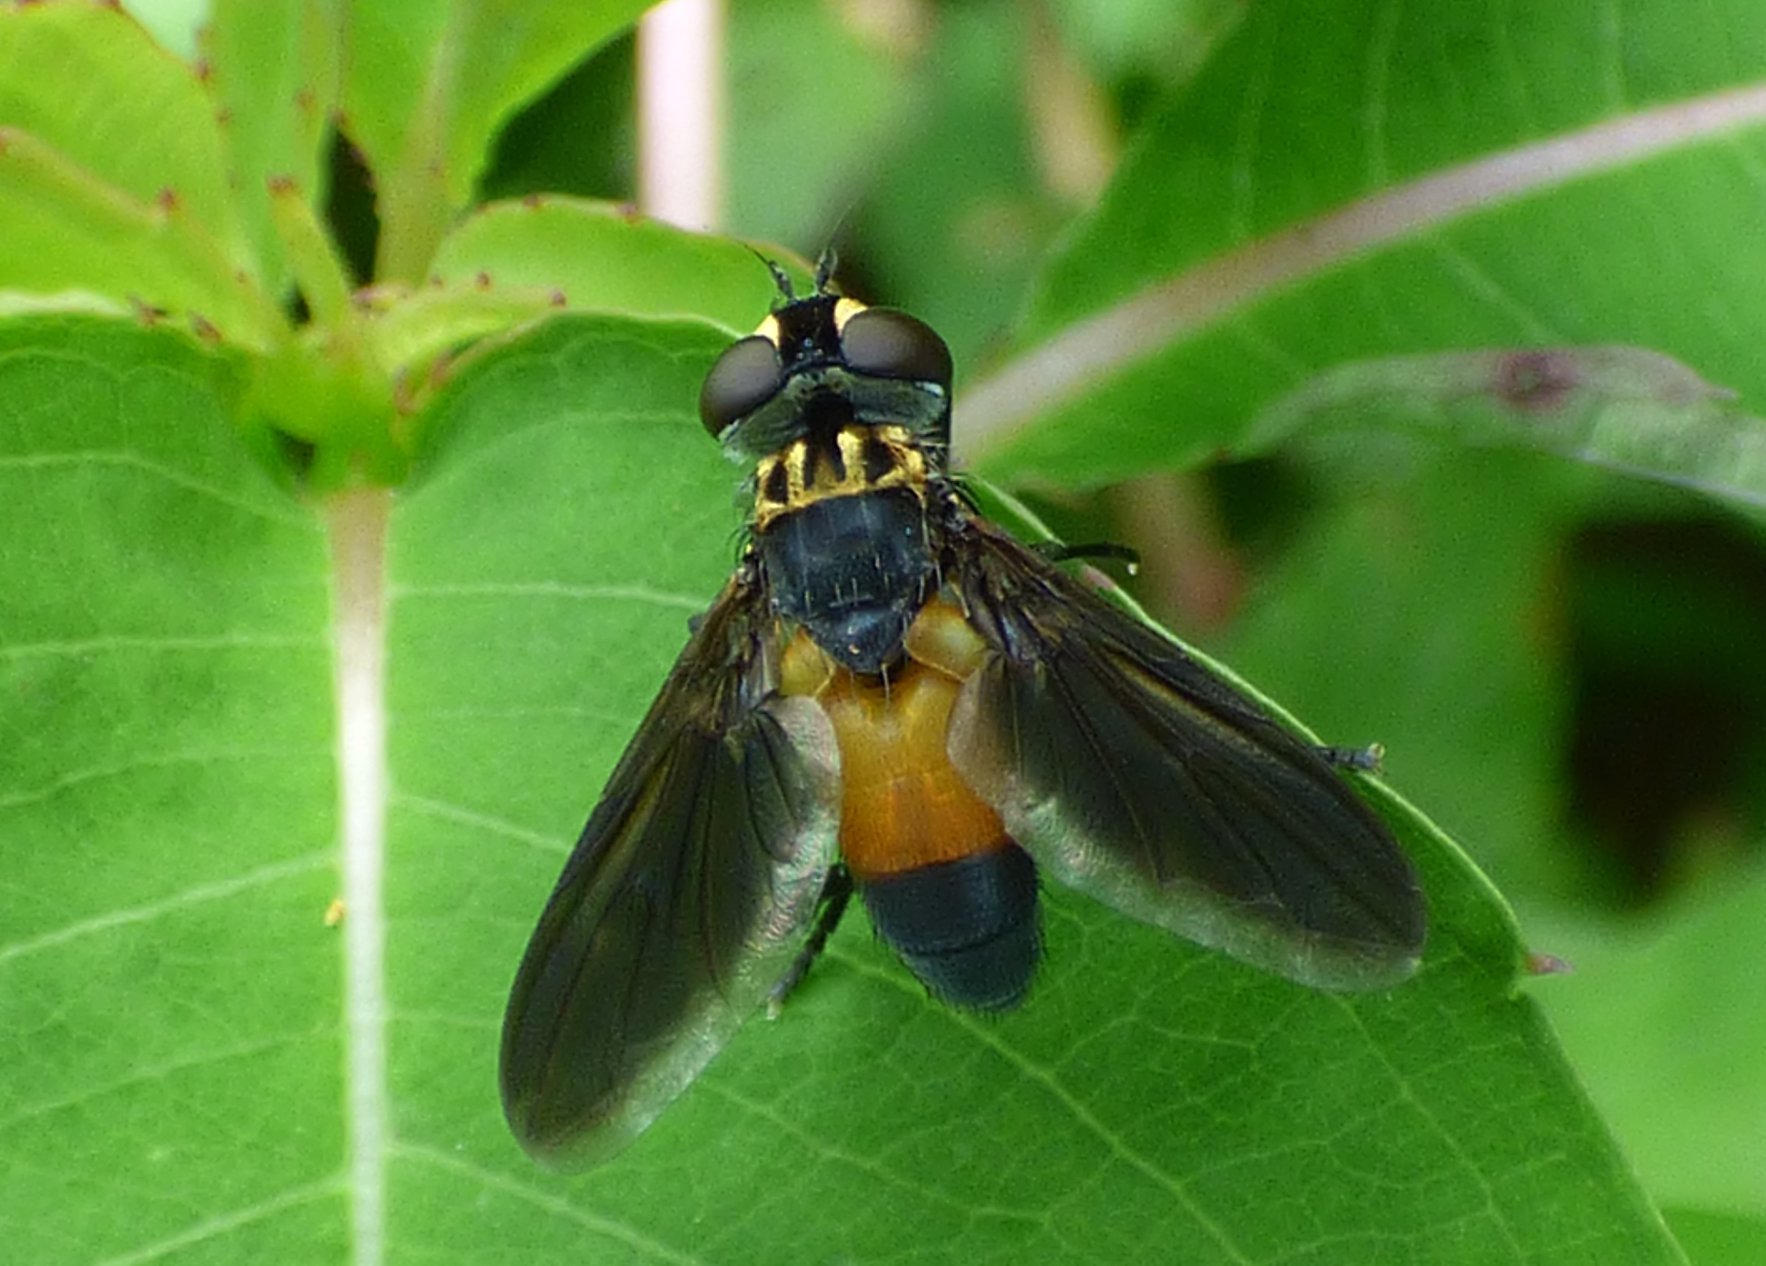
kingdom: Animalia
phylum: Arthropoda
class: Insecta
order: Diptera
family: Tachinidae
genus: Trichopoda
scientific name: Trichopoda pennipes
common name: Tachinid fly
